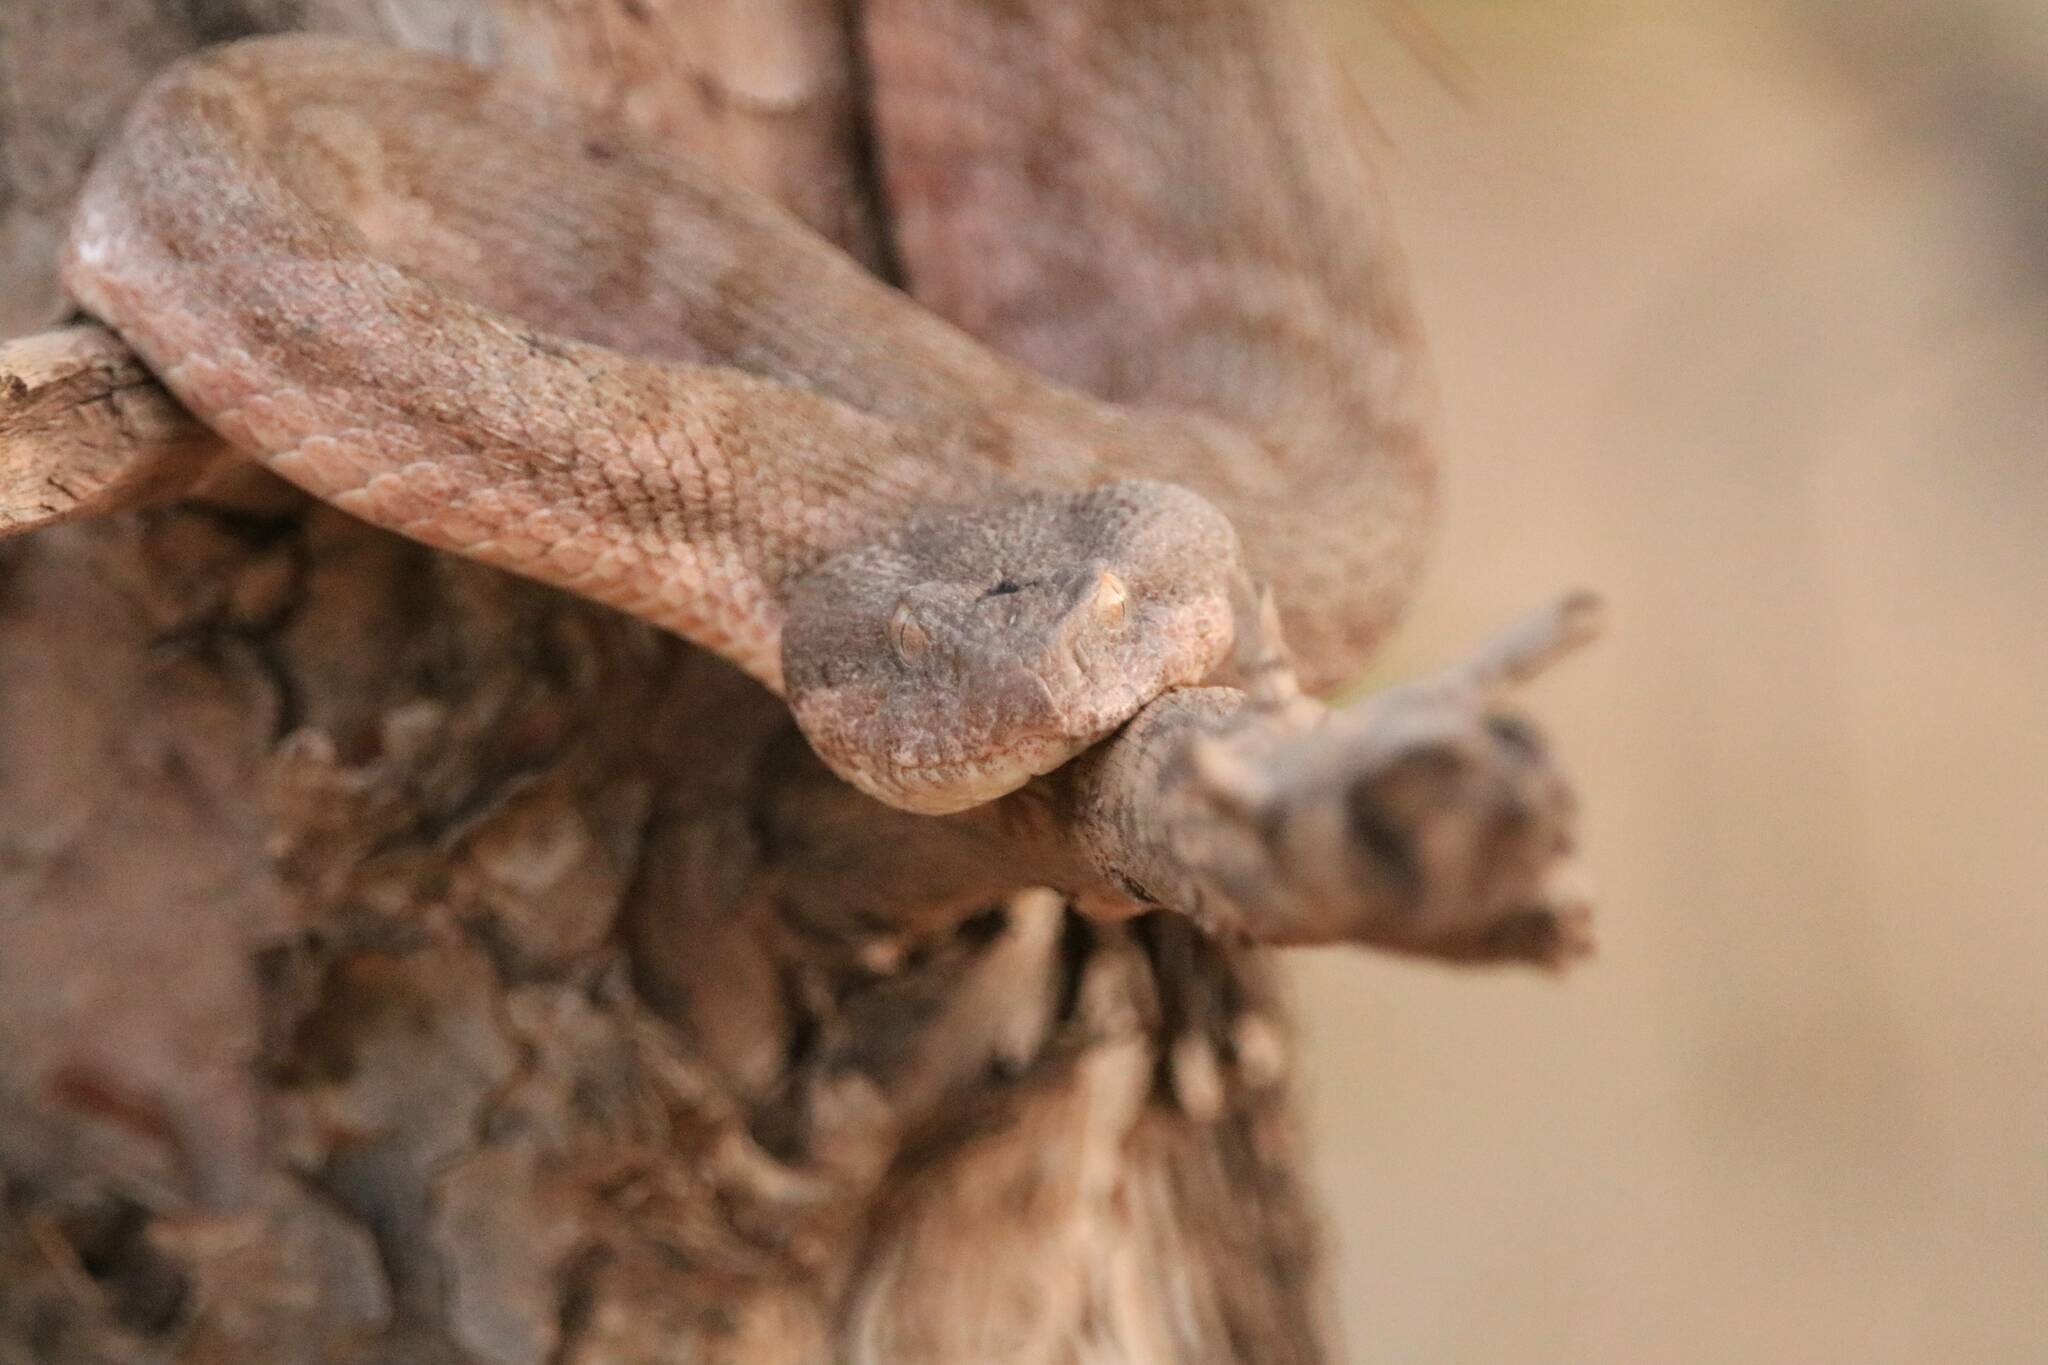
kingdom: Animalia
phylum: Chordata
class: Squamata
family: Viperidae
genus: Daboia
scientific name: Daboia mauritanica
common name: Moorish viper
